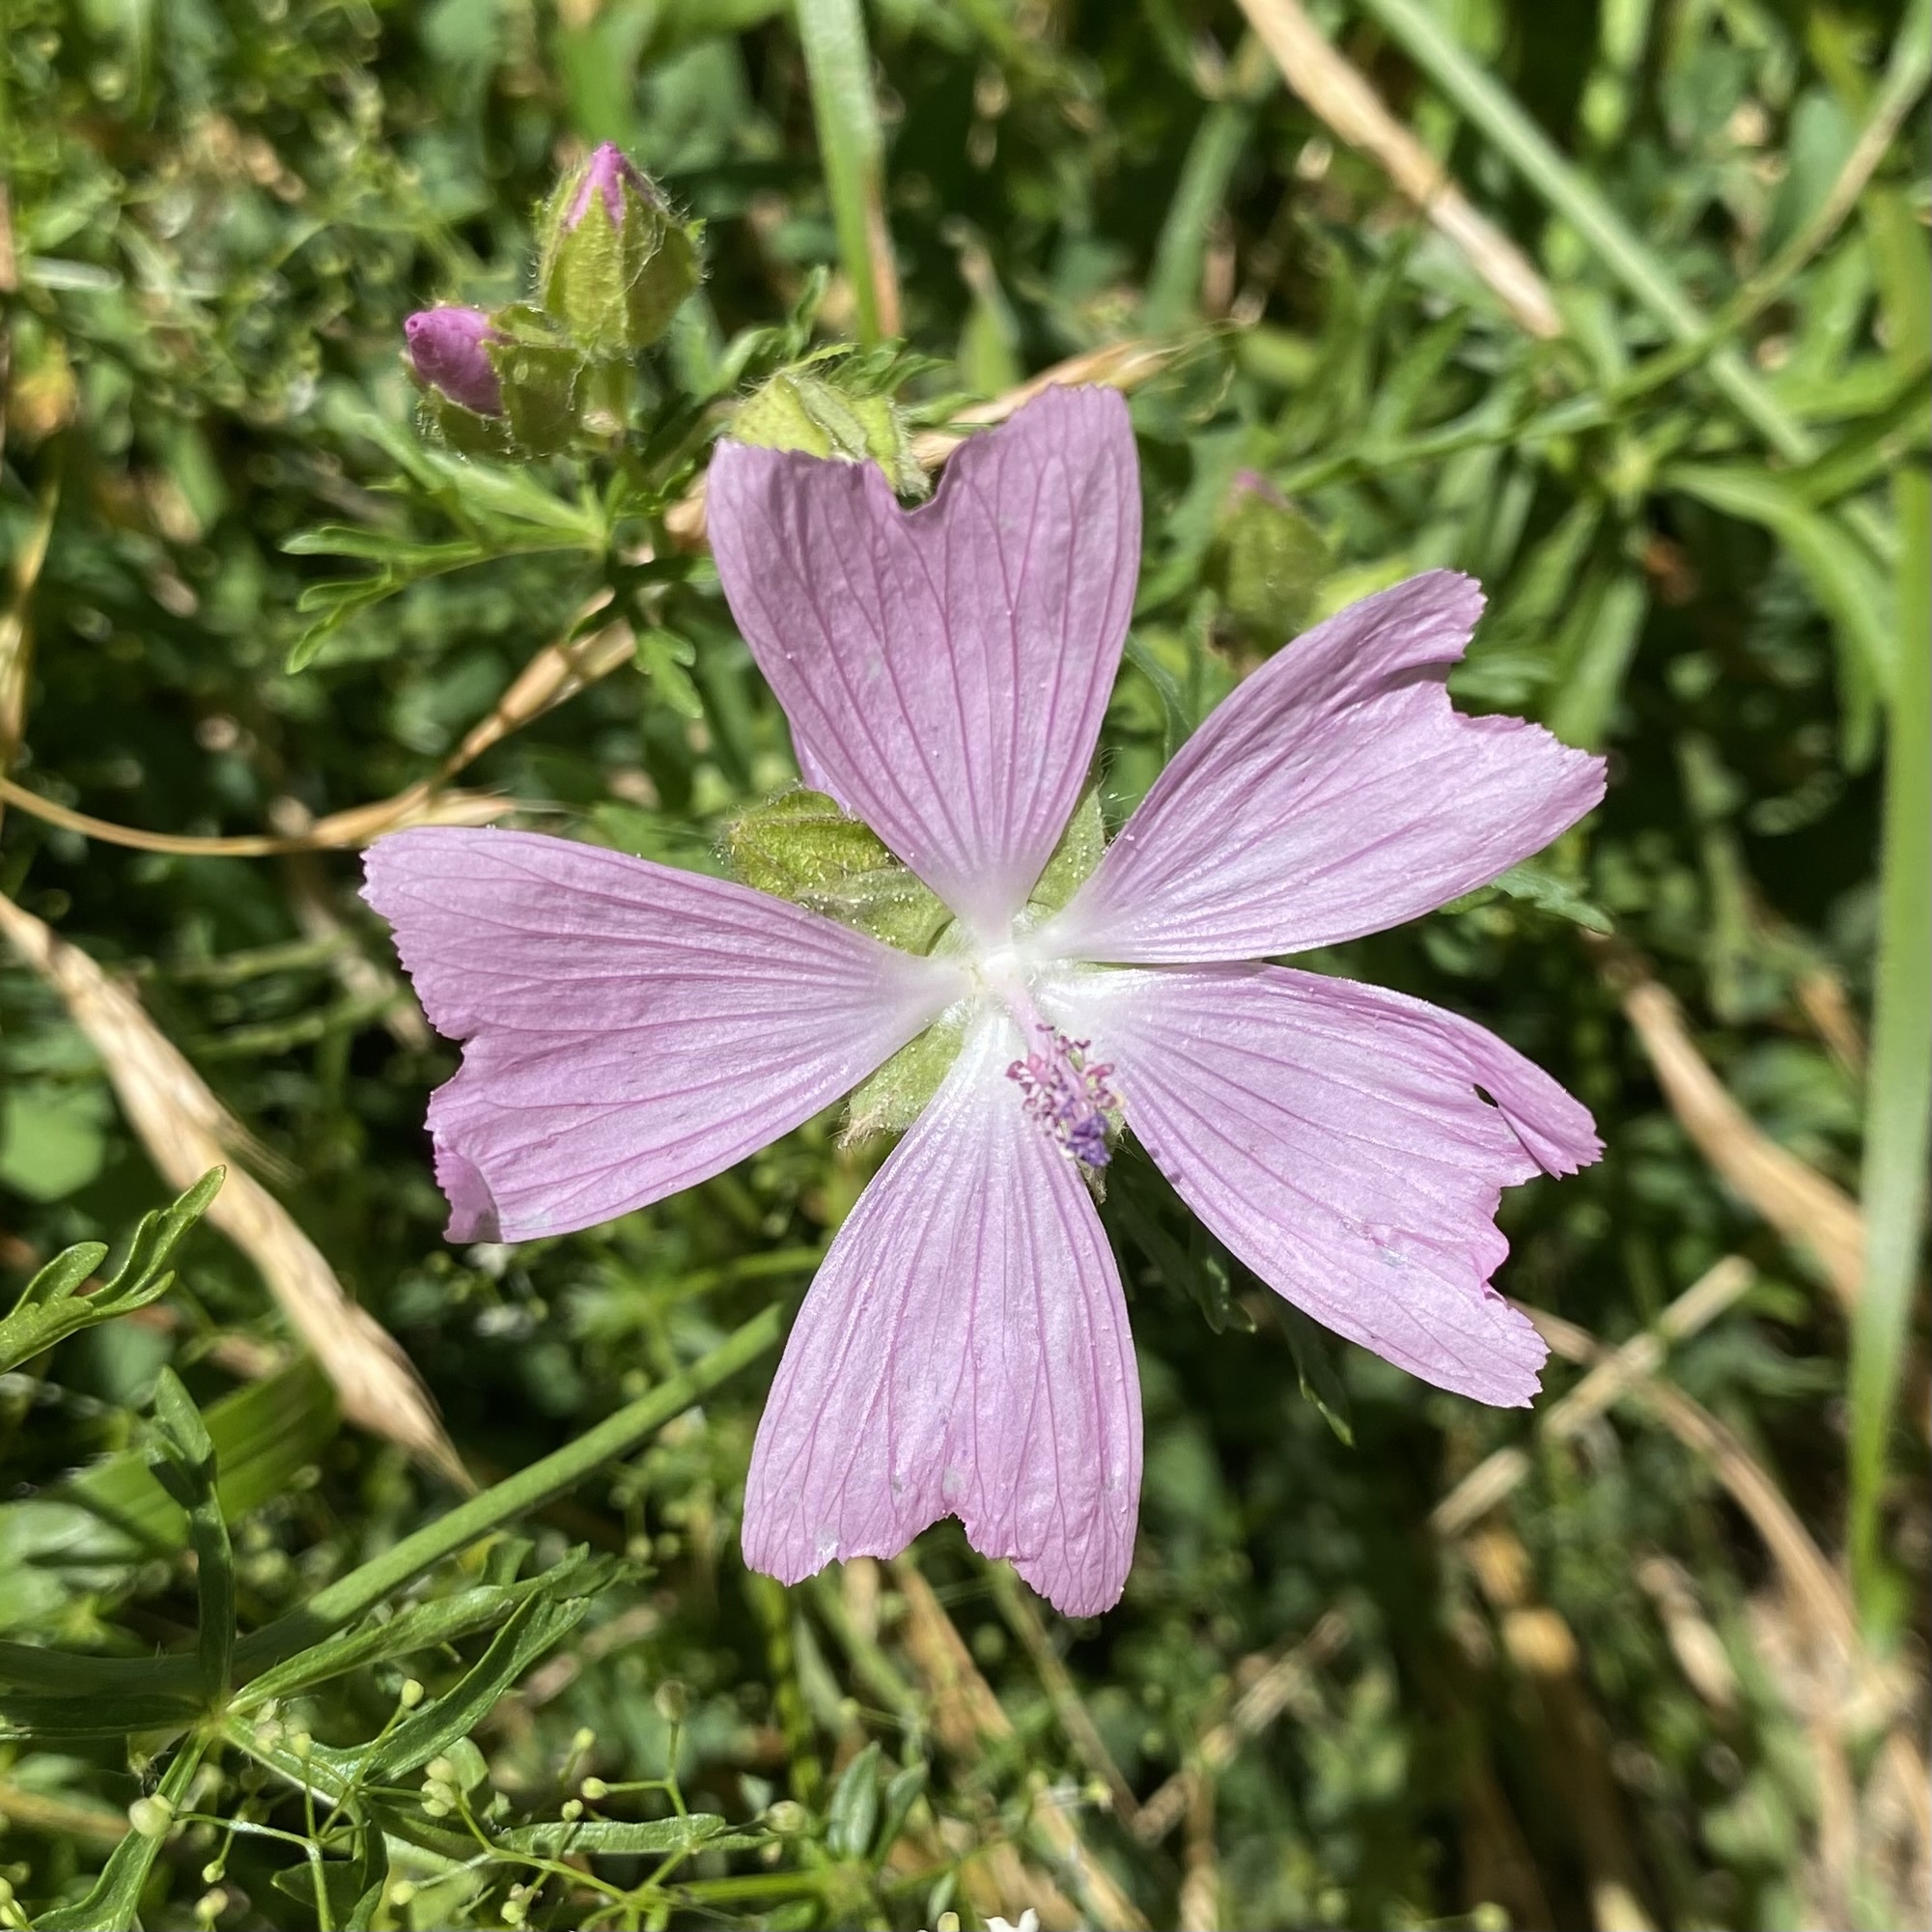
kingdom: Plantae
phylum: Tracheophyta
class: Magnoliopsida
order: Malvales
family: Malvaceae
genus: Malva
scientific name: Malva moschata
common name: Musk mallow
